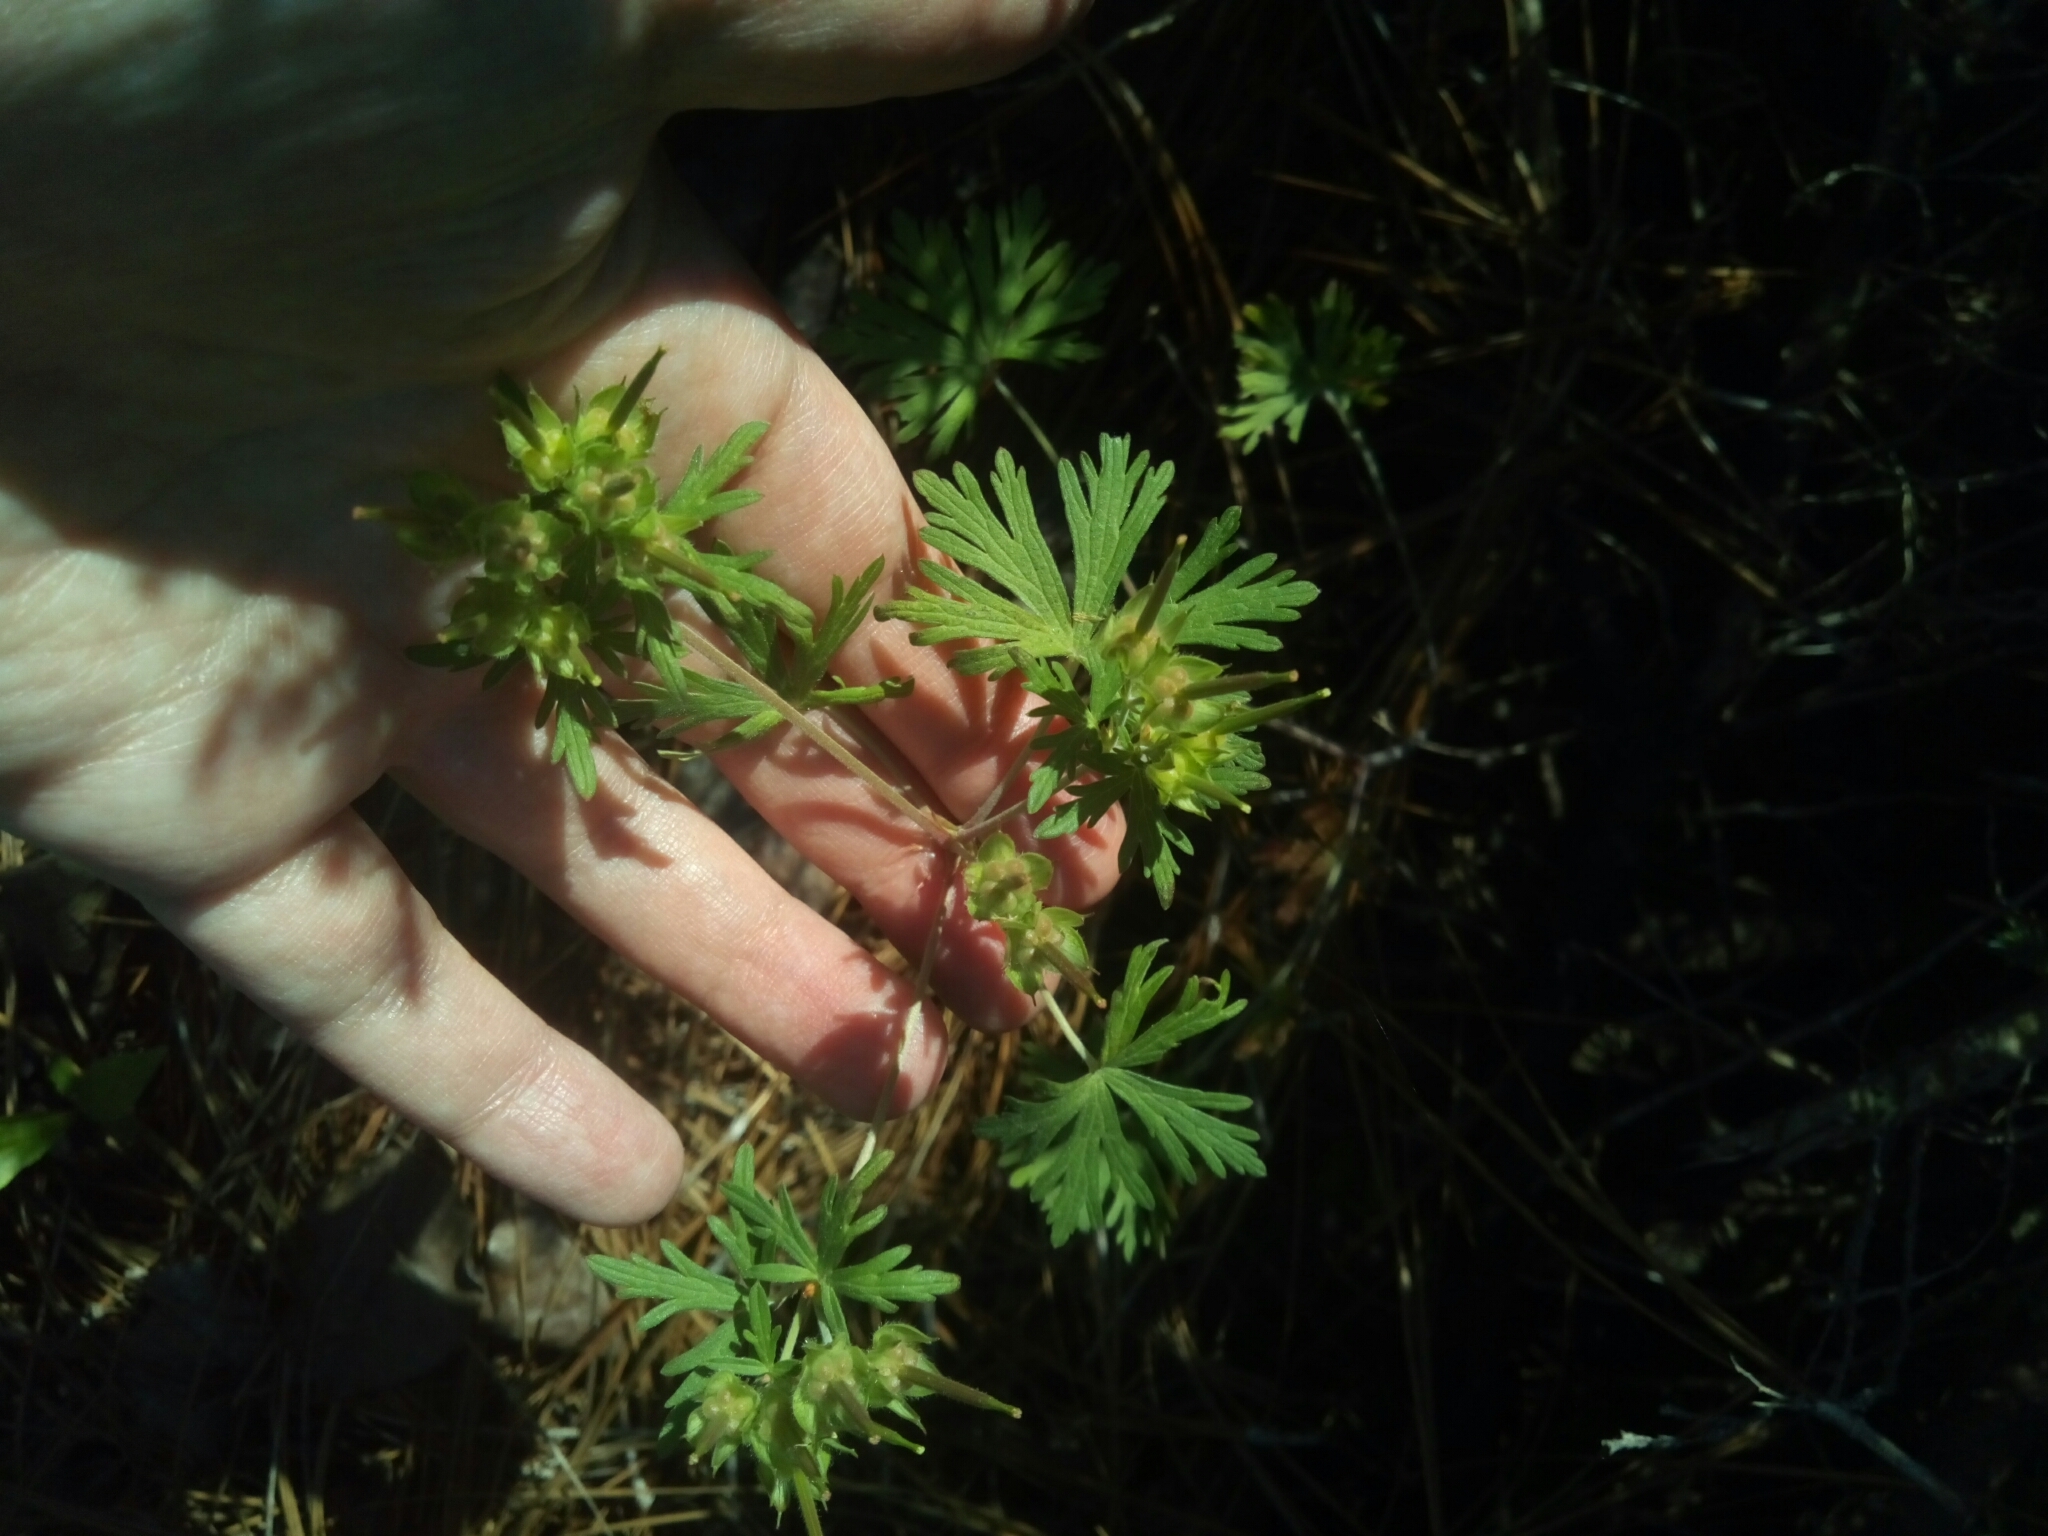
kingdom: Plantae
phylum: Tracheophyta
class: Magnoliopsida
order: Geraniales
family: Geraniaceae
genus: Geranium
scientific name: Geranium carolinianum
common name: Carolina crane's-bill
